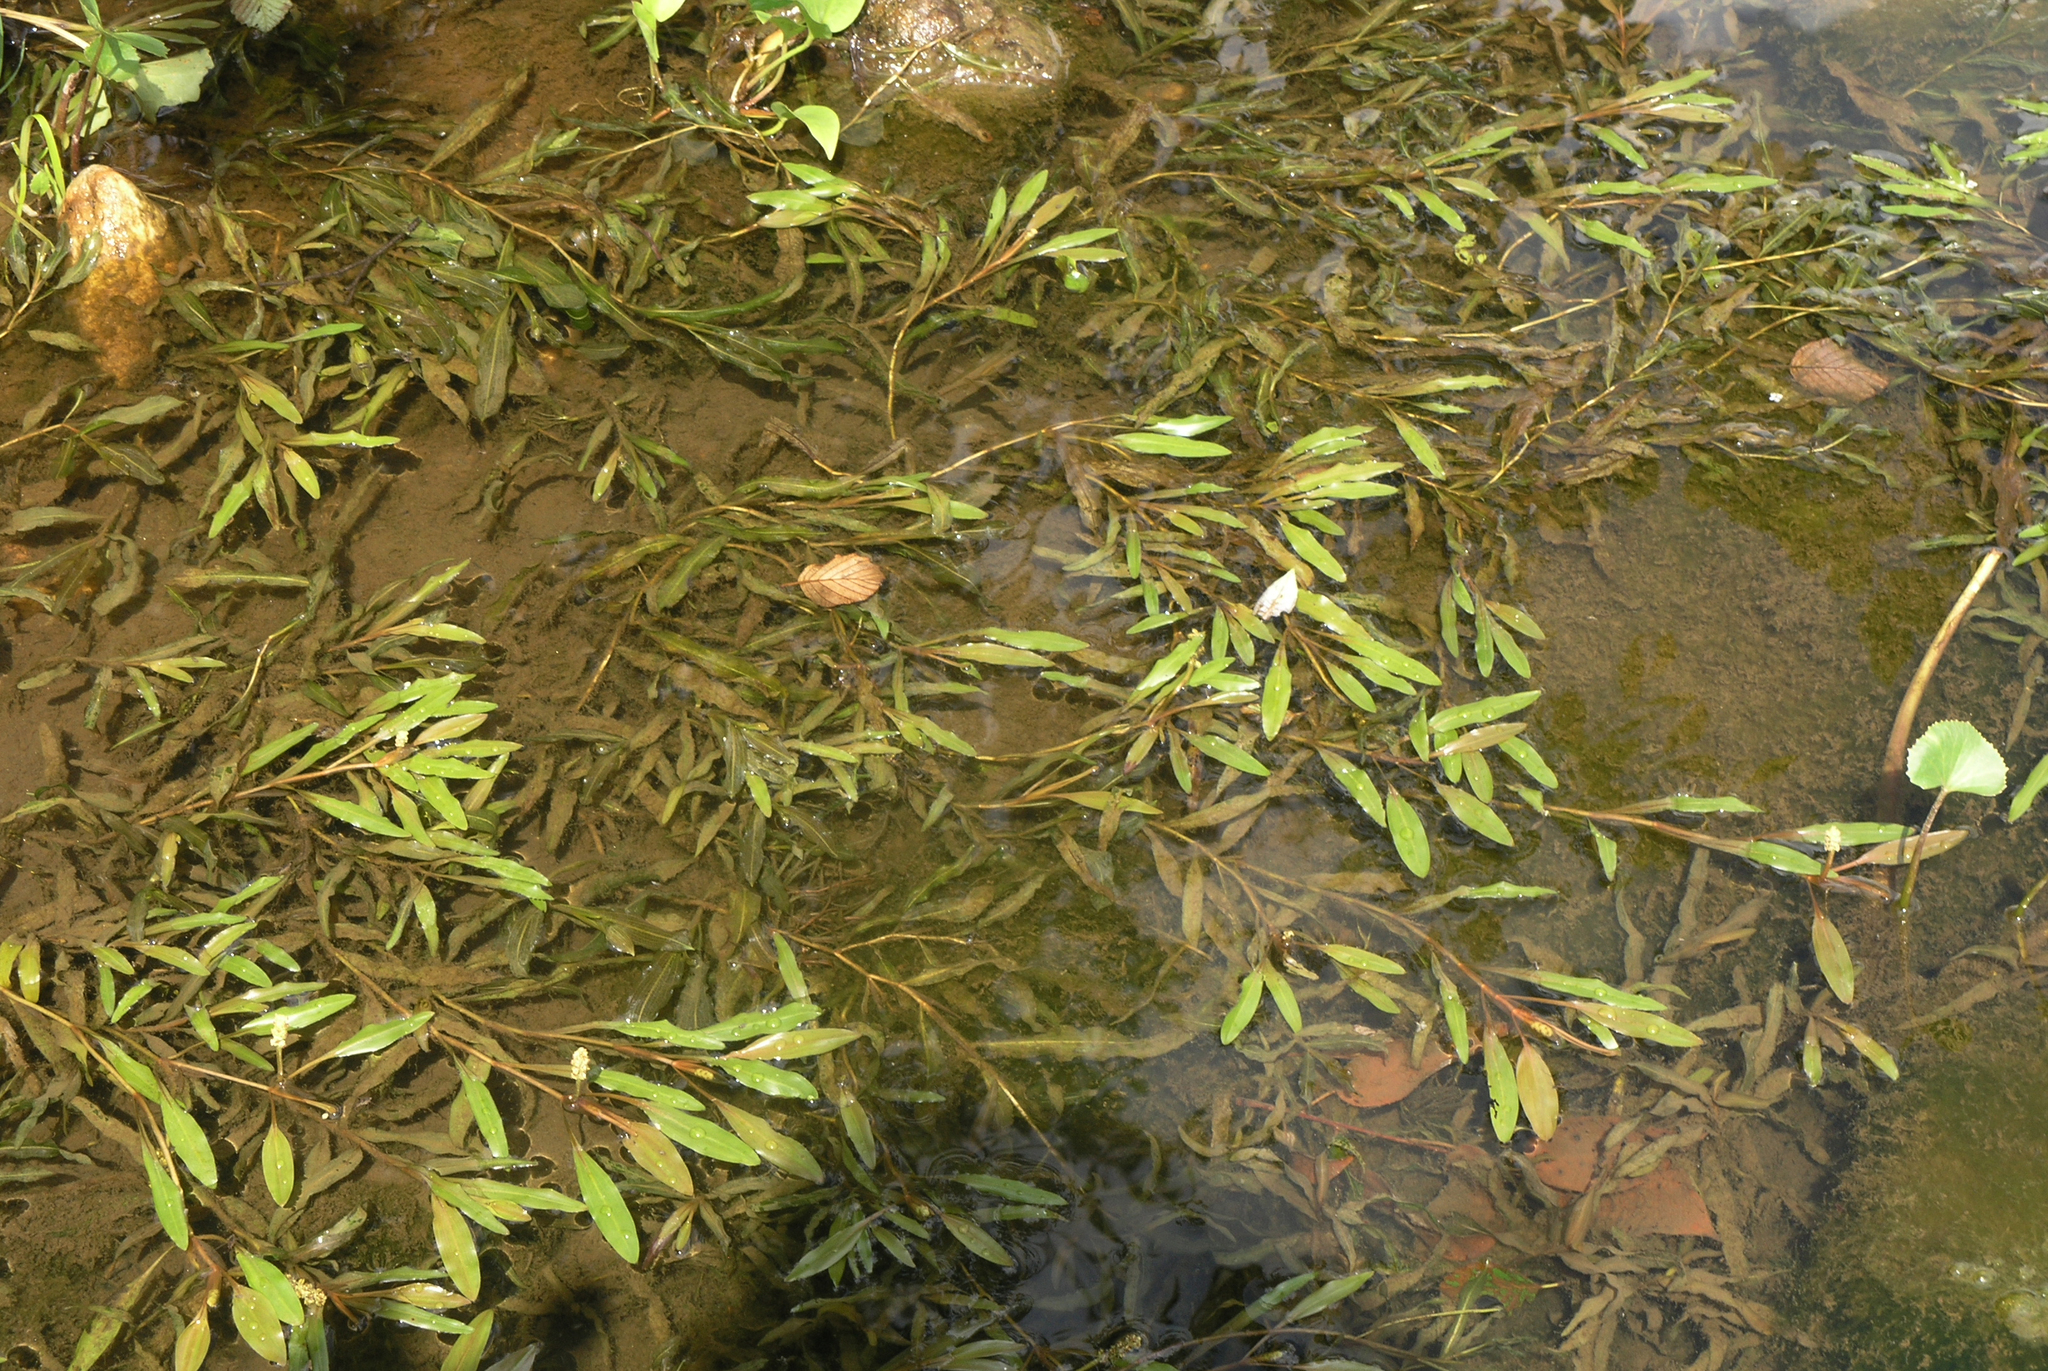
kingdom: Plantae
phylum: Tracheophyta
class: Liliopsida
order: Alismatales
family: Potamogetonaceae
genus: Potamogeton
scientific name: Potamogeton alpinus
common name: Red pondweed
